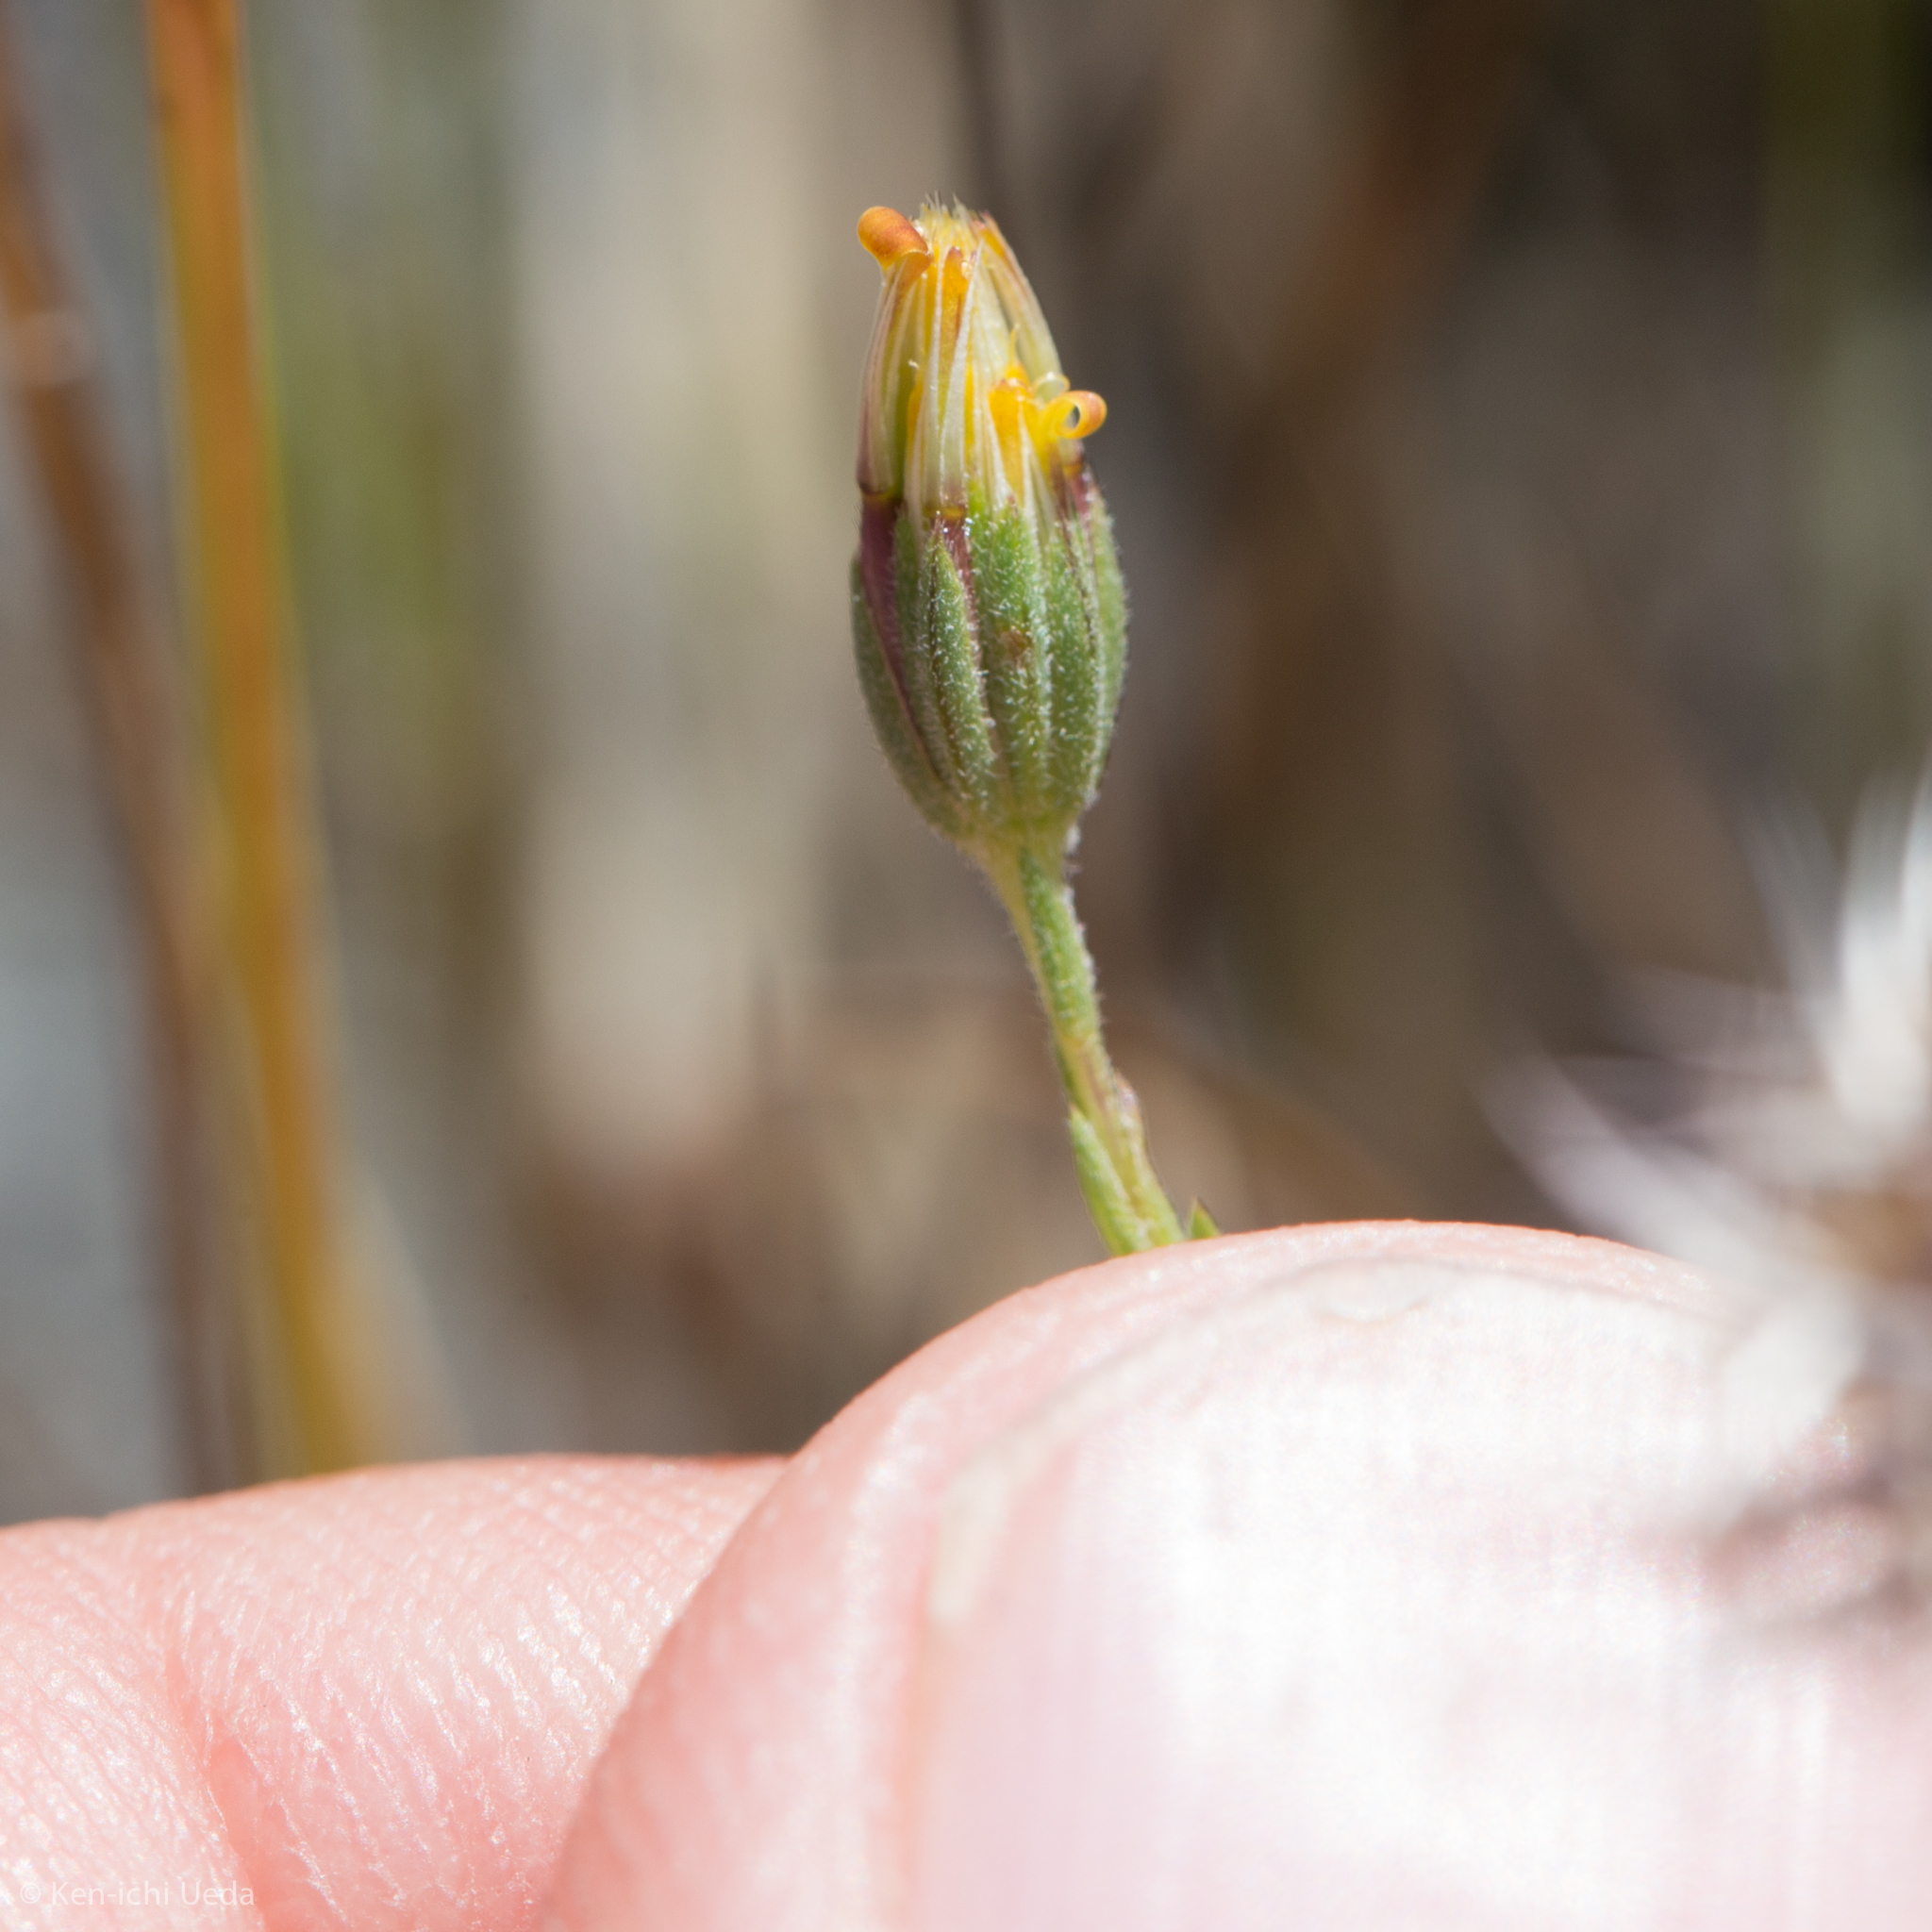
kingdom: Plantae
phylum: Tracheophyta
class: Magnoliopsida
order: Asterales
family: Asteraceae
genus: Rigiopappus
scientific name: Rigiopappus leptocladus
